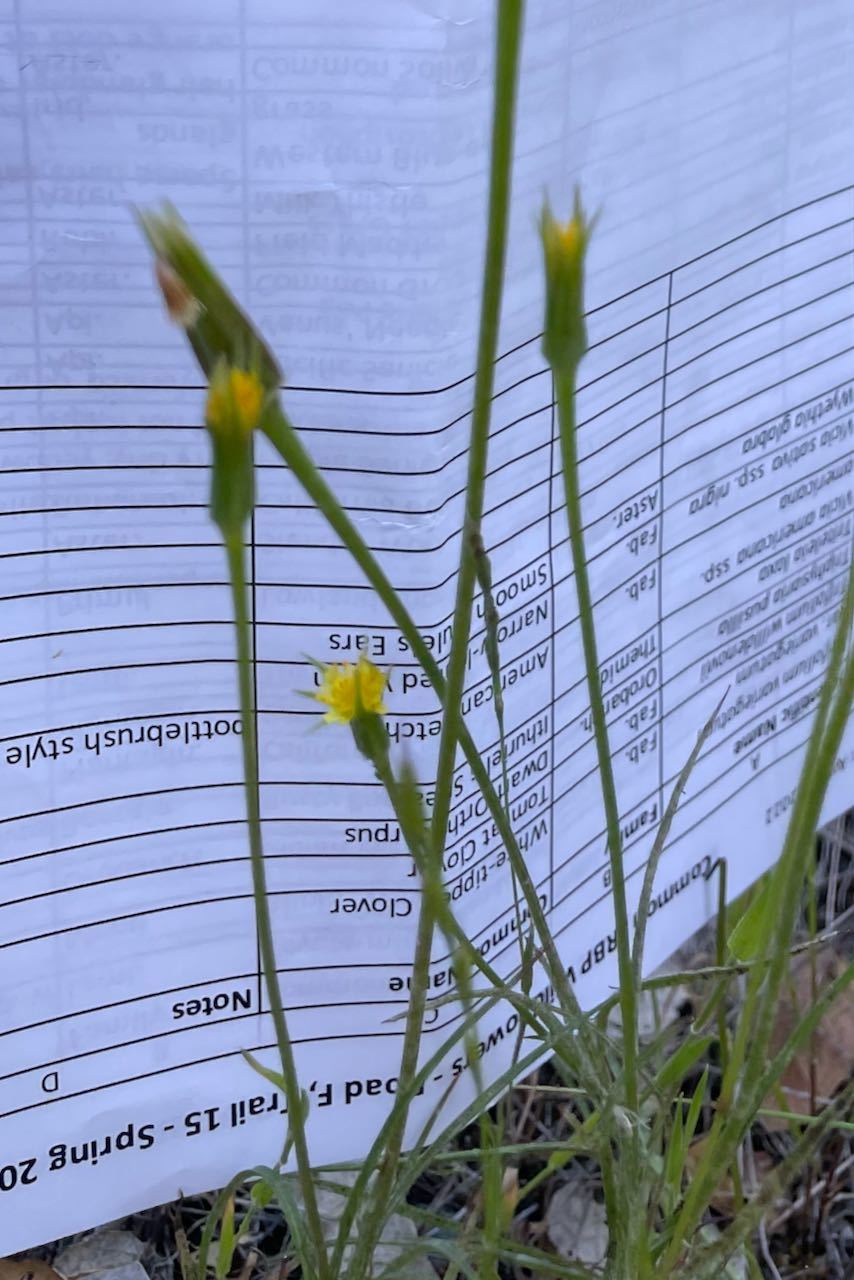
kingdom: Plantae
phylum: Tracheophyta
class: Magnoliopsida
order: Asterales
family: Asteraceae
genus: Microseris
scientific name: Microseris lindleyi
